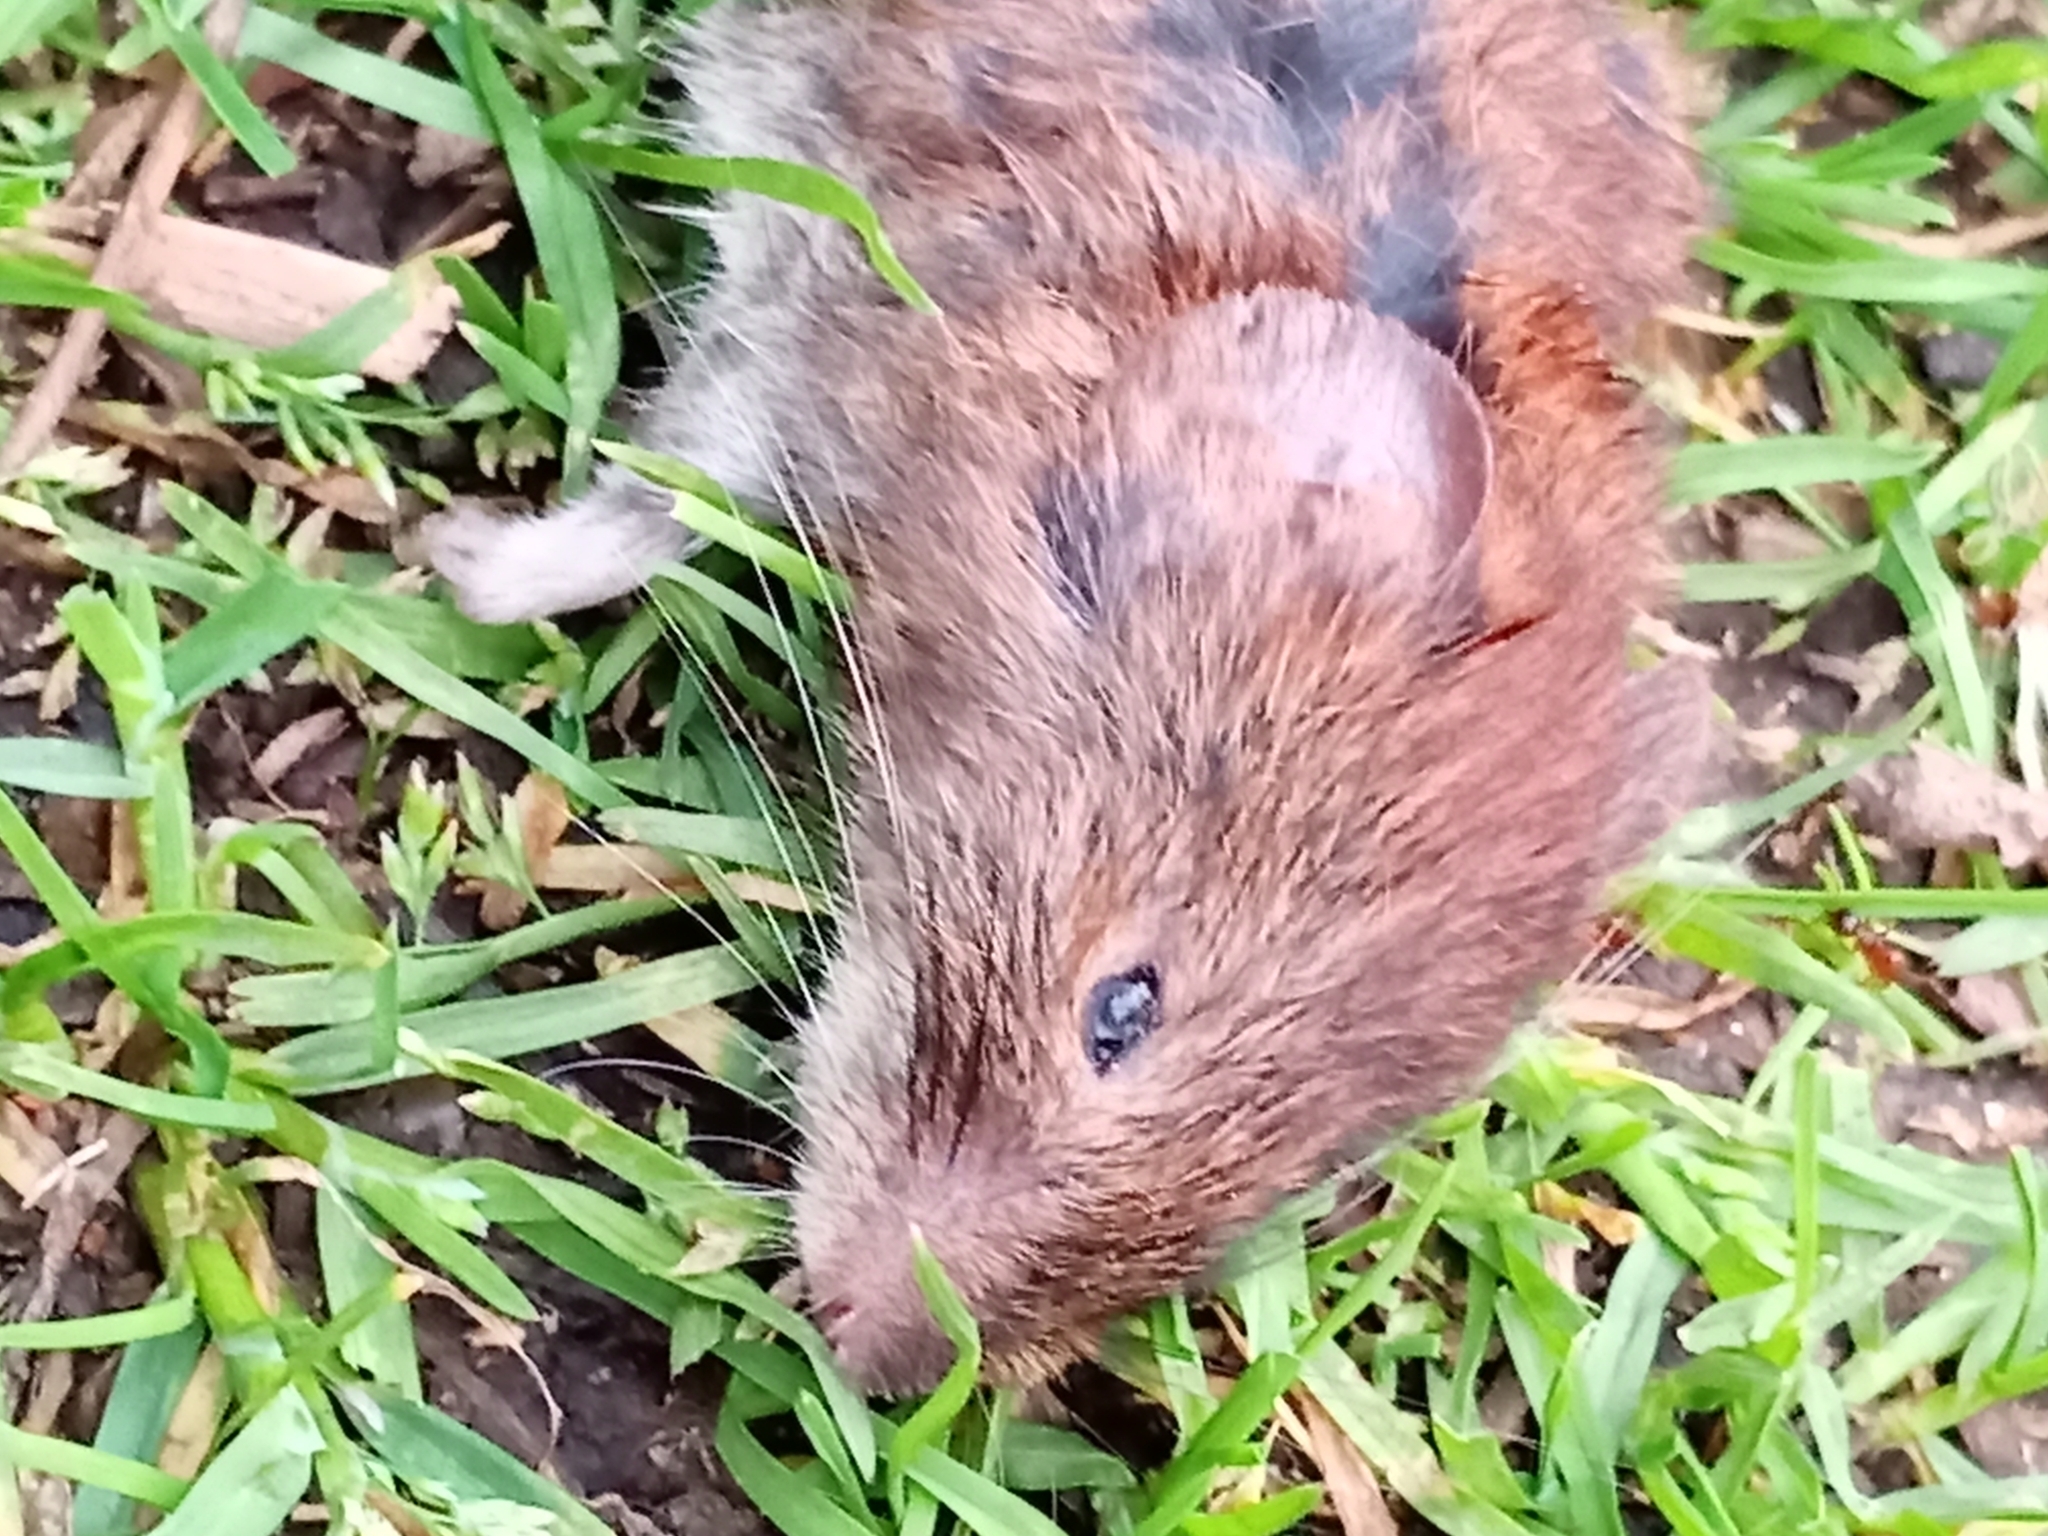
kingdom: Animalia
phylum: Chordata
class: Mammalia
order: Rodentia
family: Cricetidae
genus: Myodes
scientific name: Myodes glareolus
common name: Bank vole
